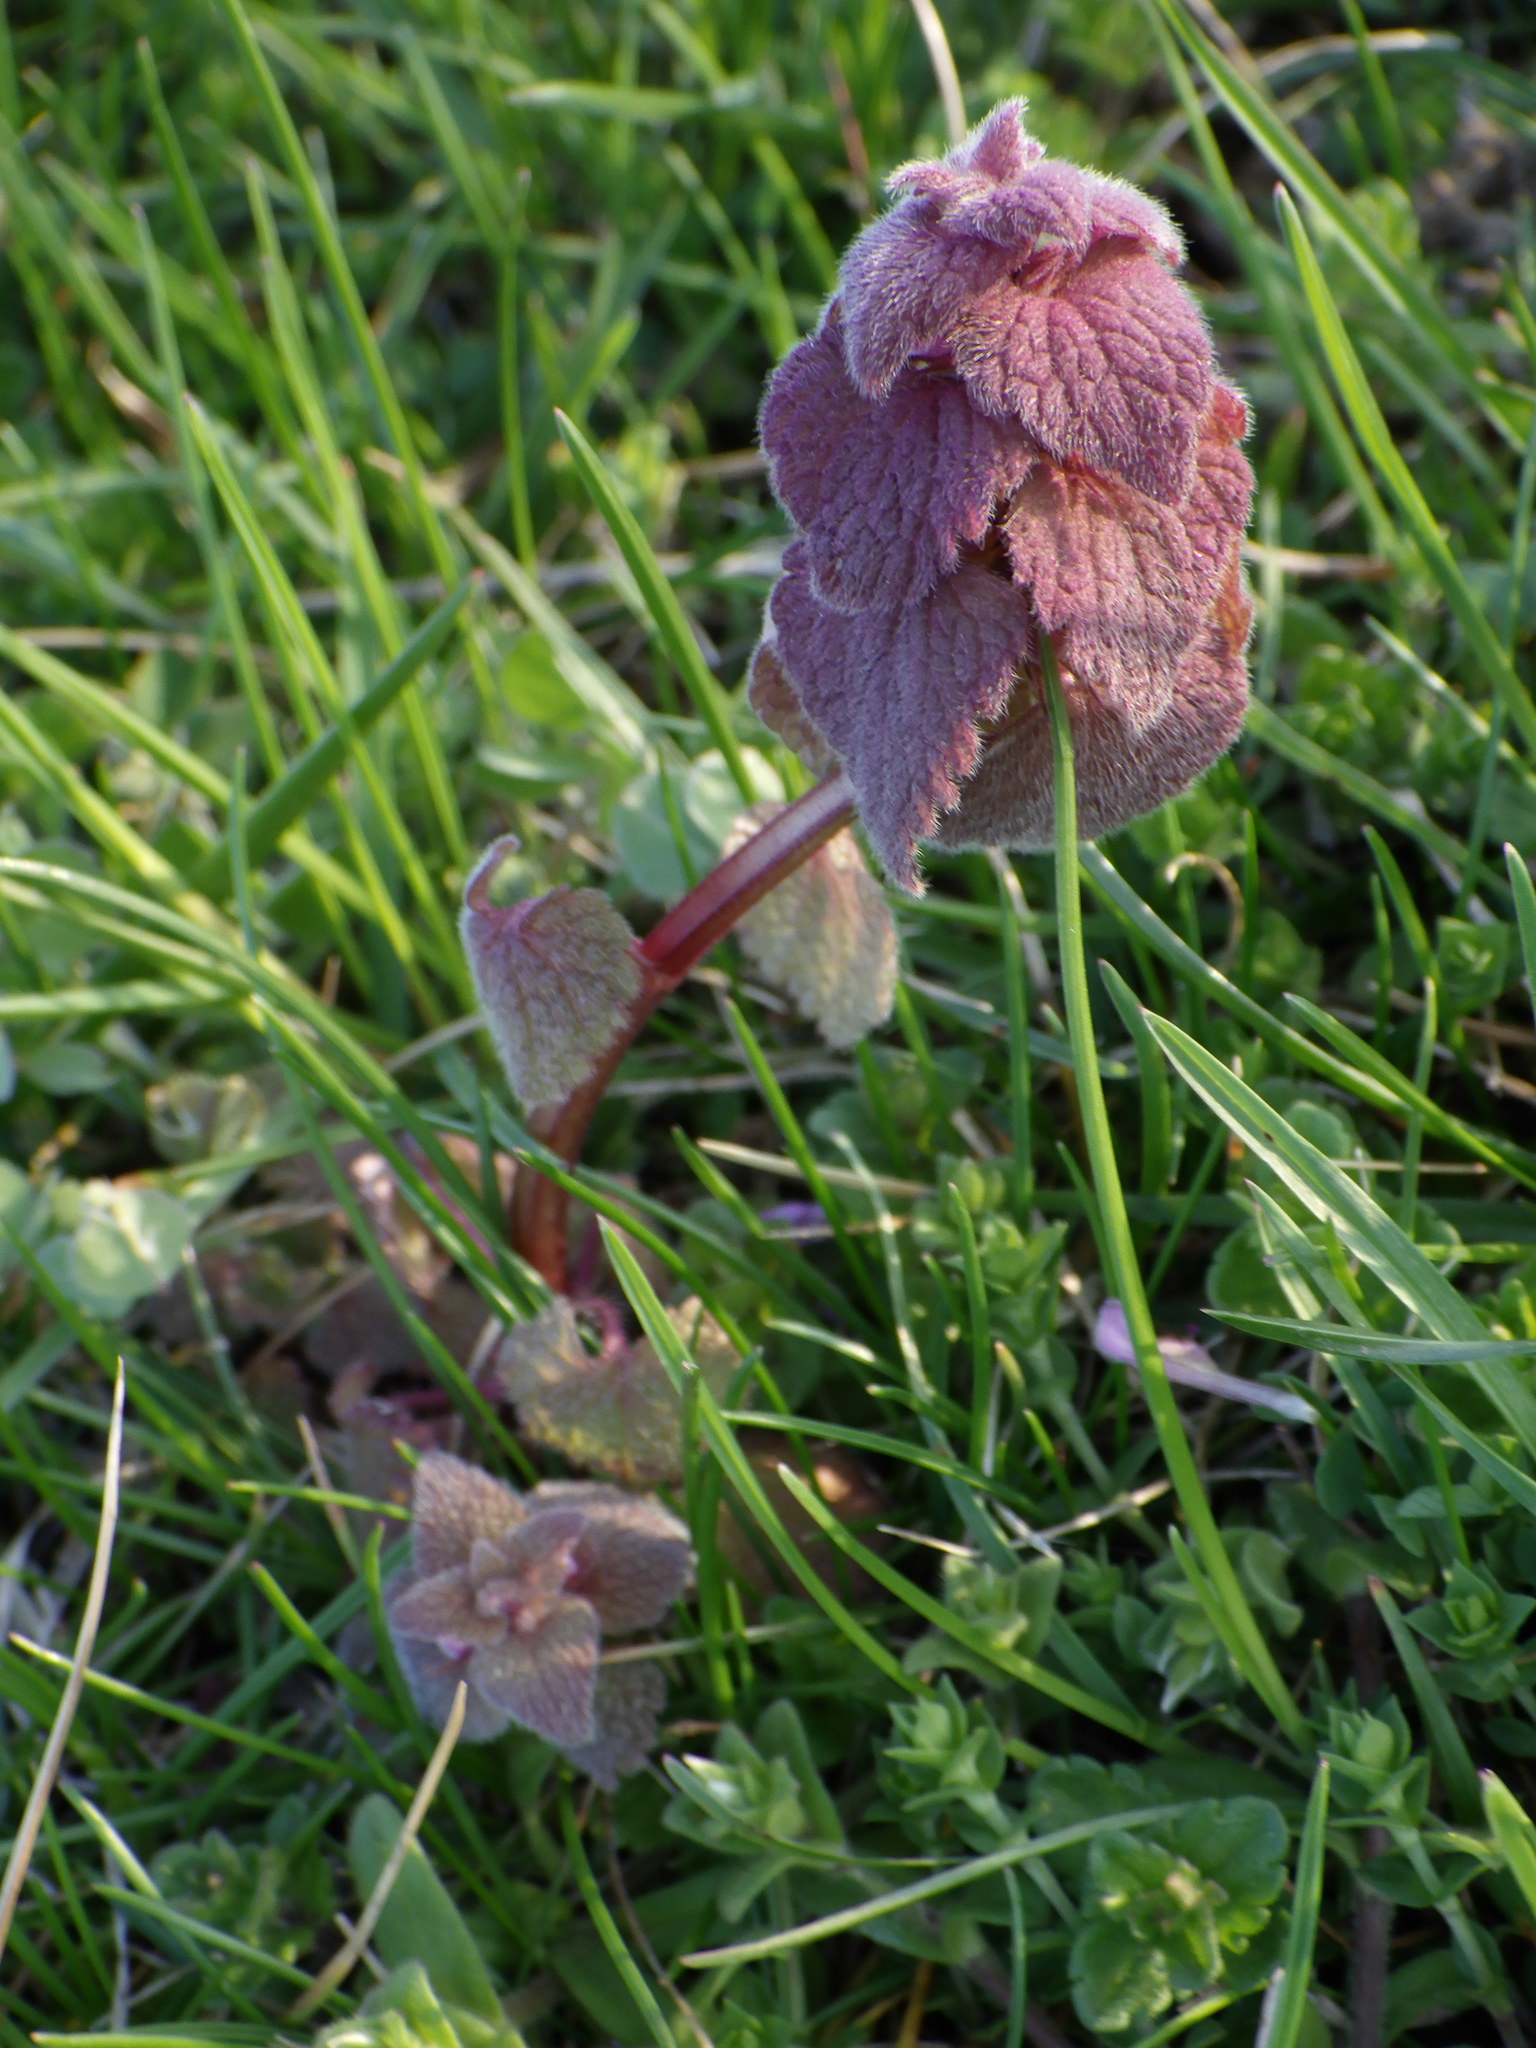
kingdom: Plantae
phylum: Tracheophyta
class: Magnoliopsida
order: Lamiales
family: Lamiaceae
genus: Lamium
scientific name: Lamium purpureum
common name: Red dead-nettle
